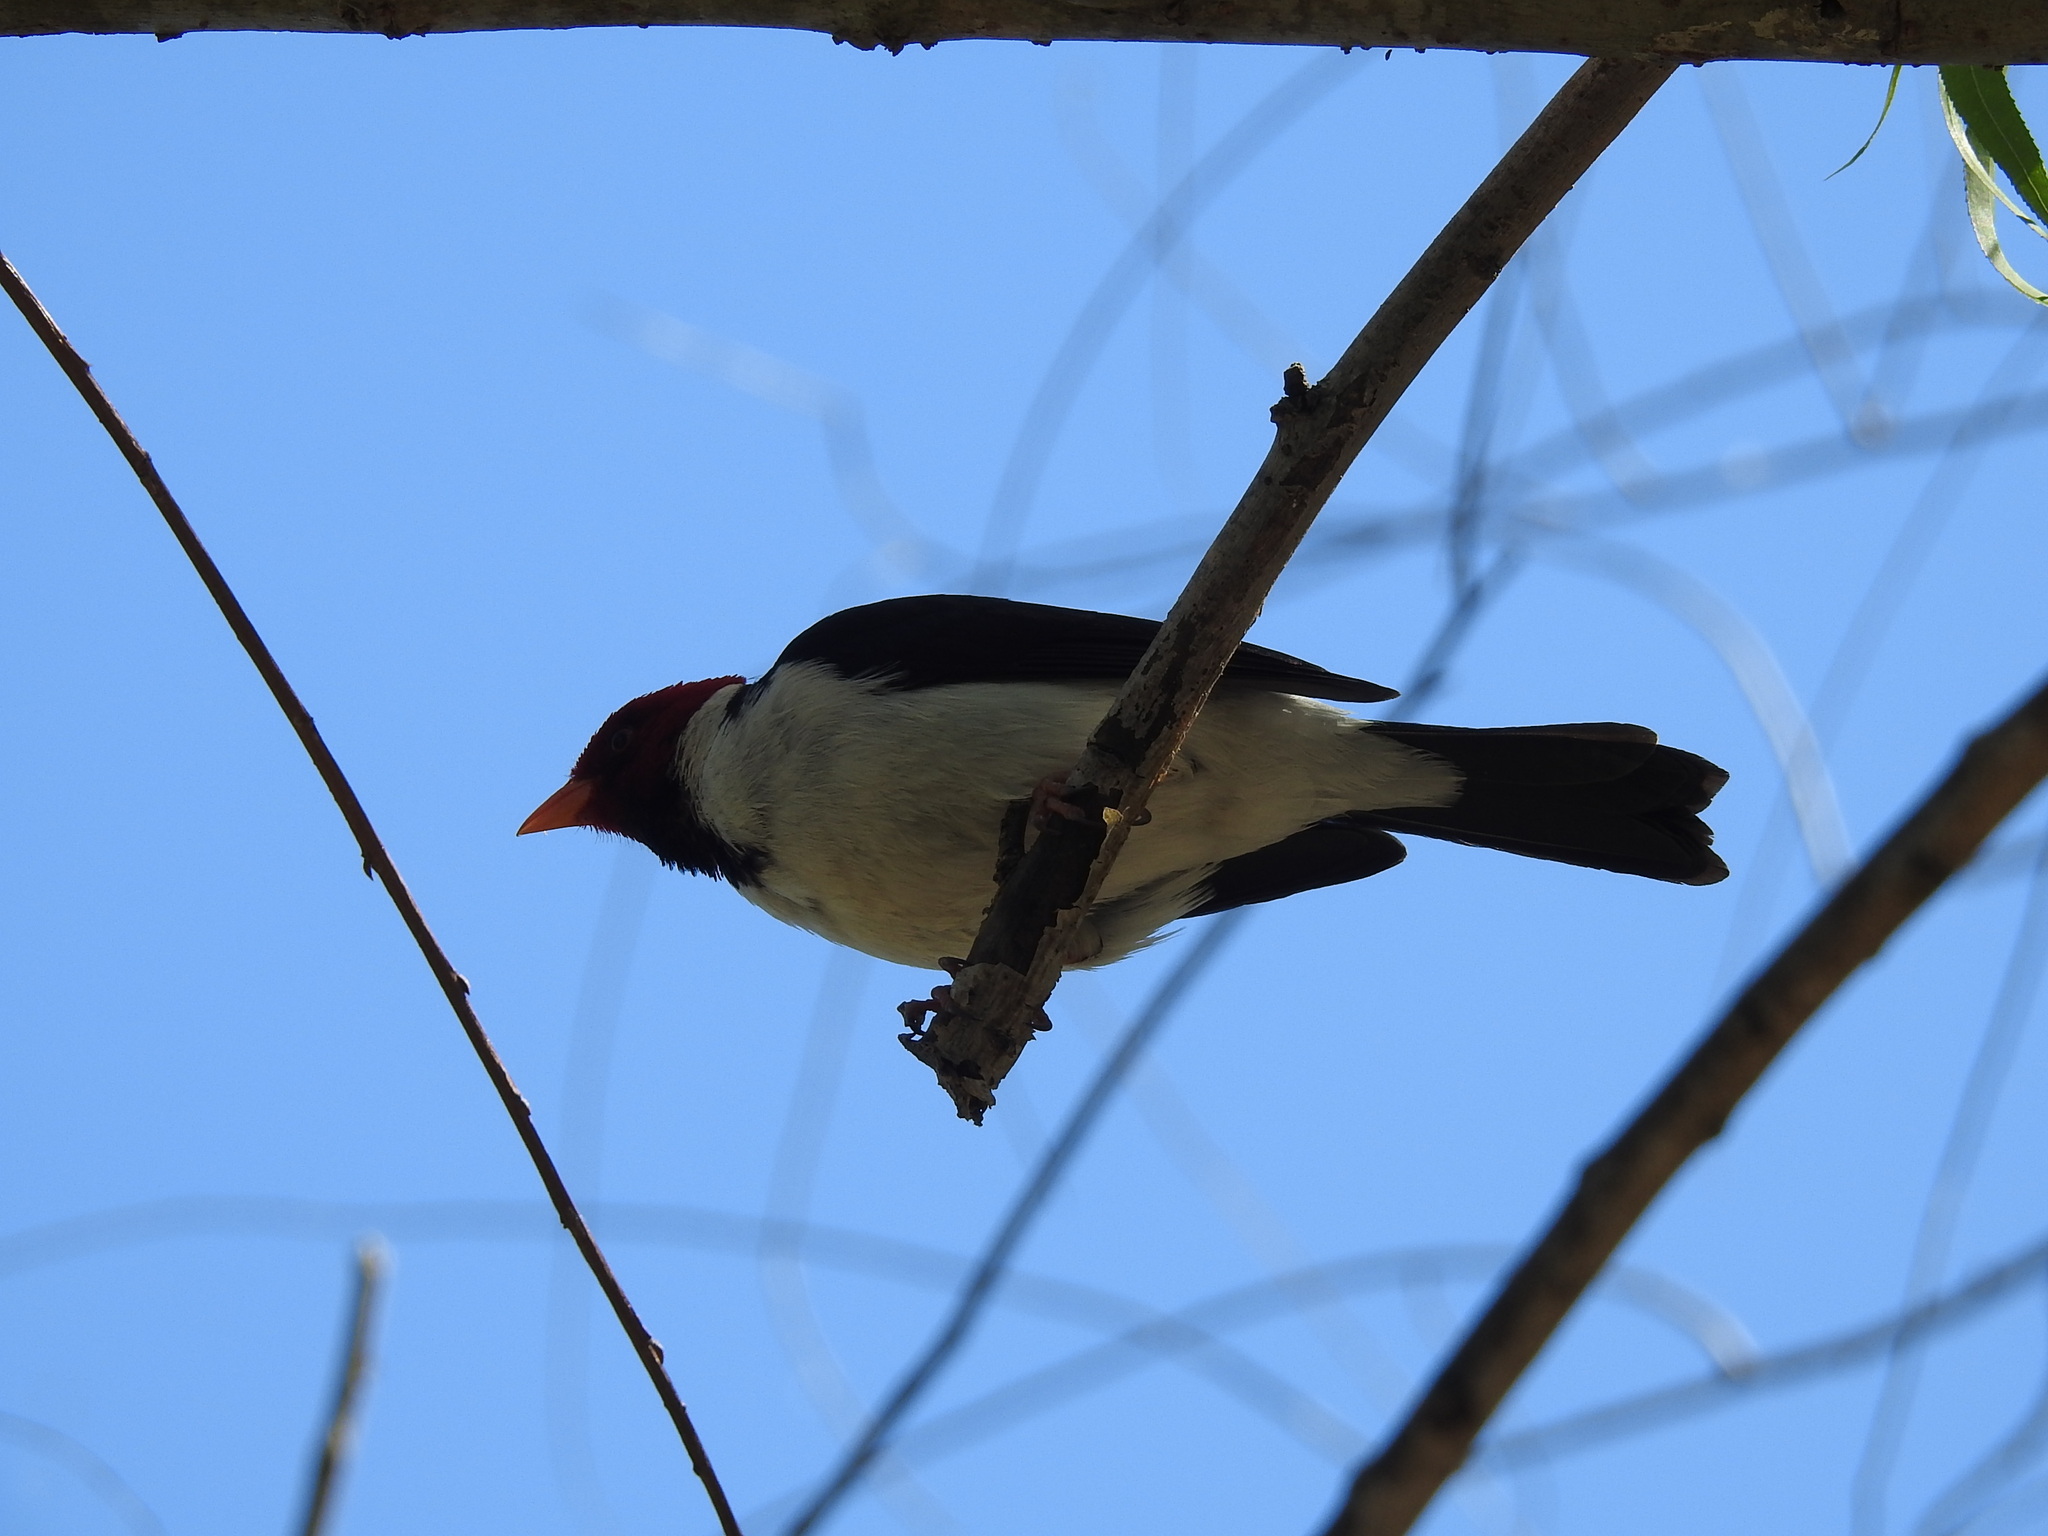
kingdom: Animalia
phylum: Chordata
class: Aves
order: Passeriformes
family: Thraupidae
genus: Paroaria
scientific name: Paroaria capitata
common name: Yellow-billed cardinal
